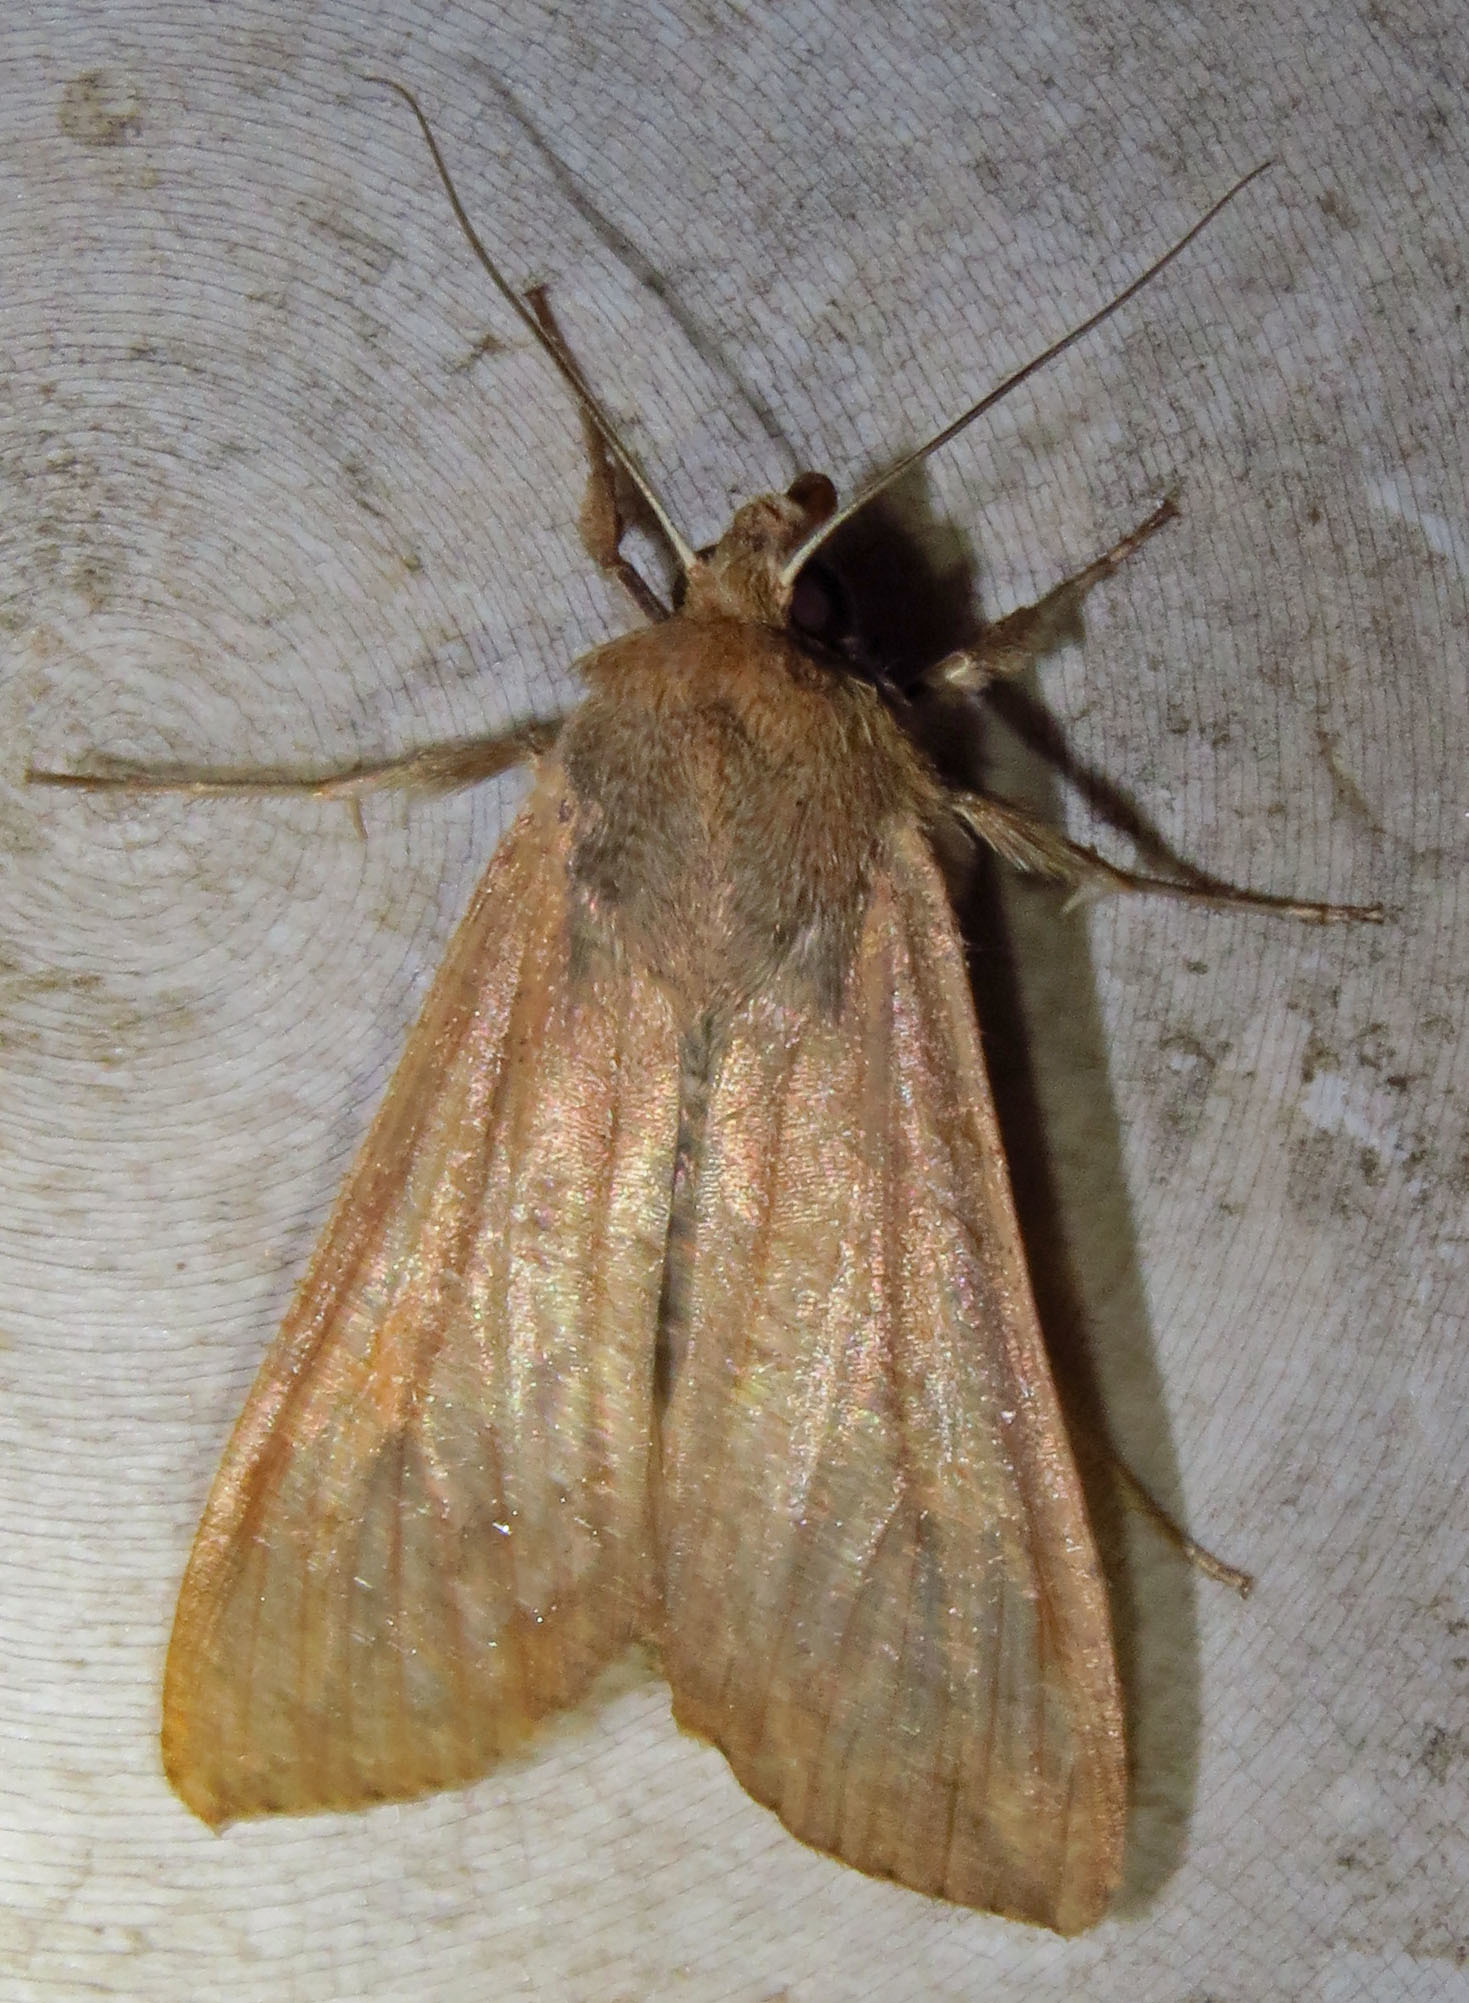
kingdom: Animalia
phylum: Arthropoda
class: Insecta
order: Lepidoptera
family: Noctuidae
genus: Mythimna
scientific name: Mythimna unipuncta
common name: White-speck
